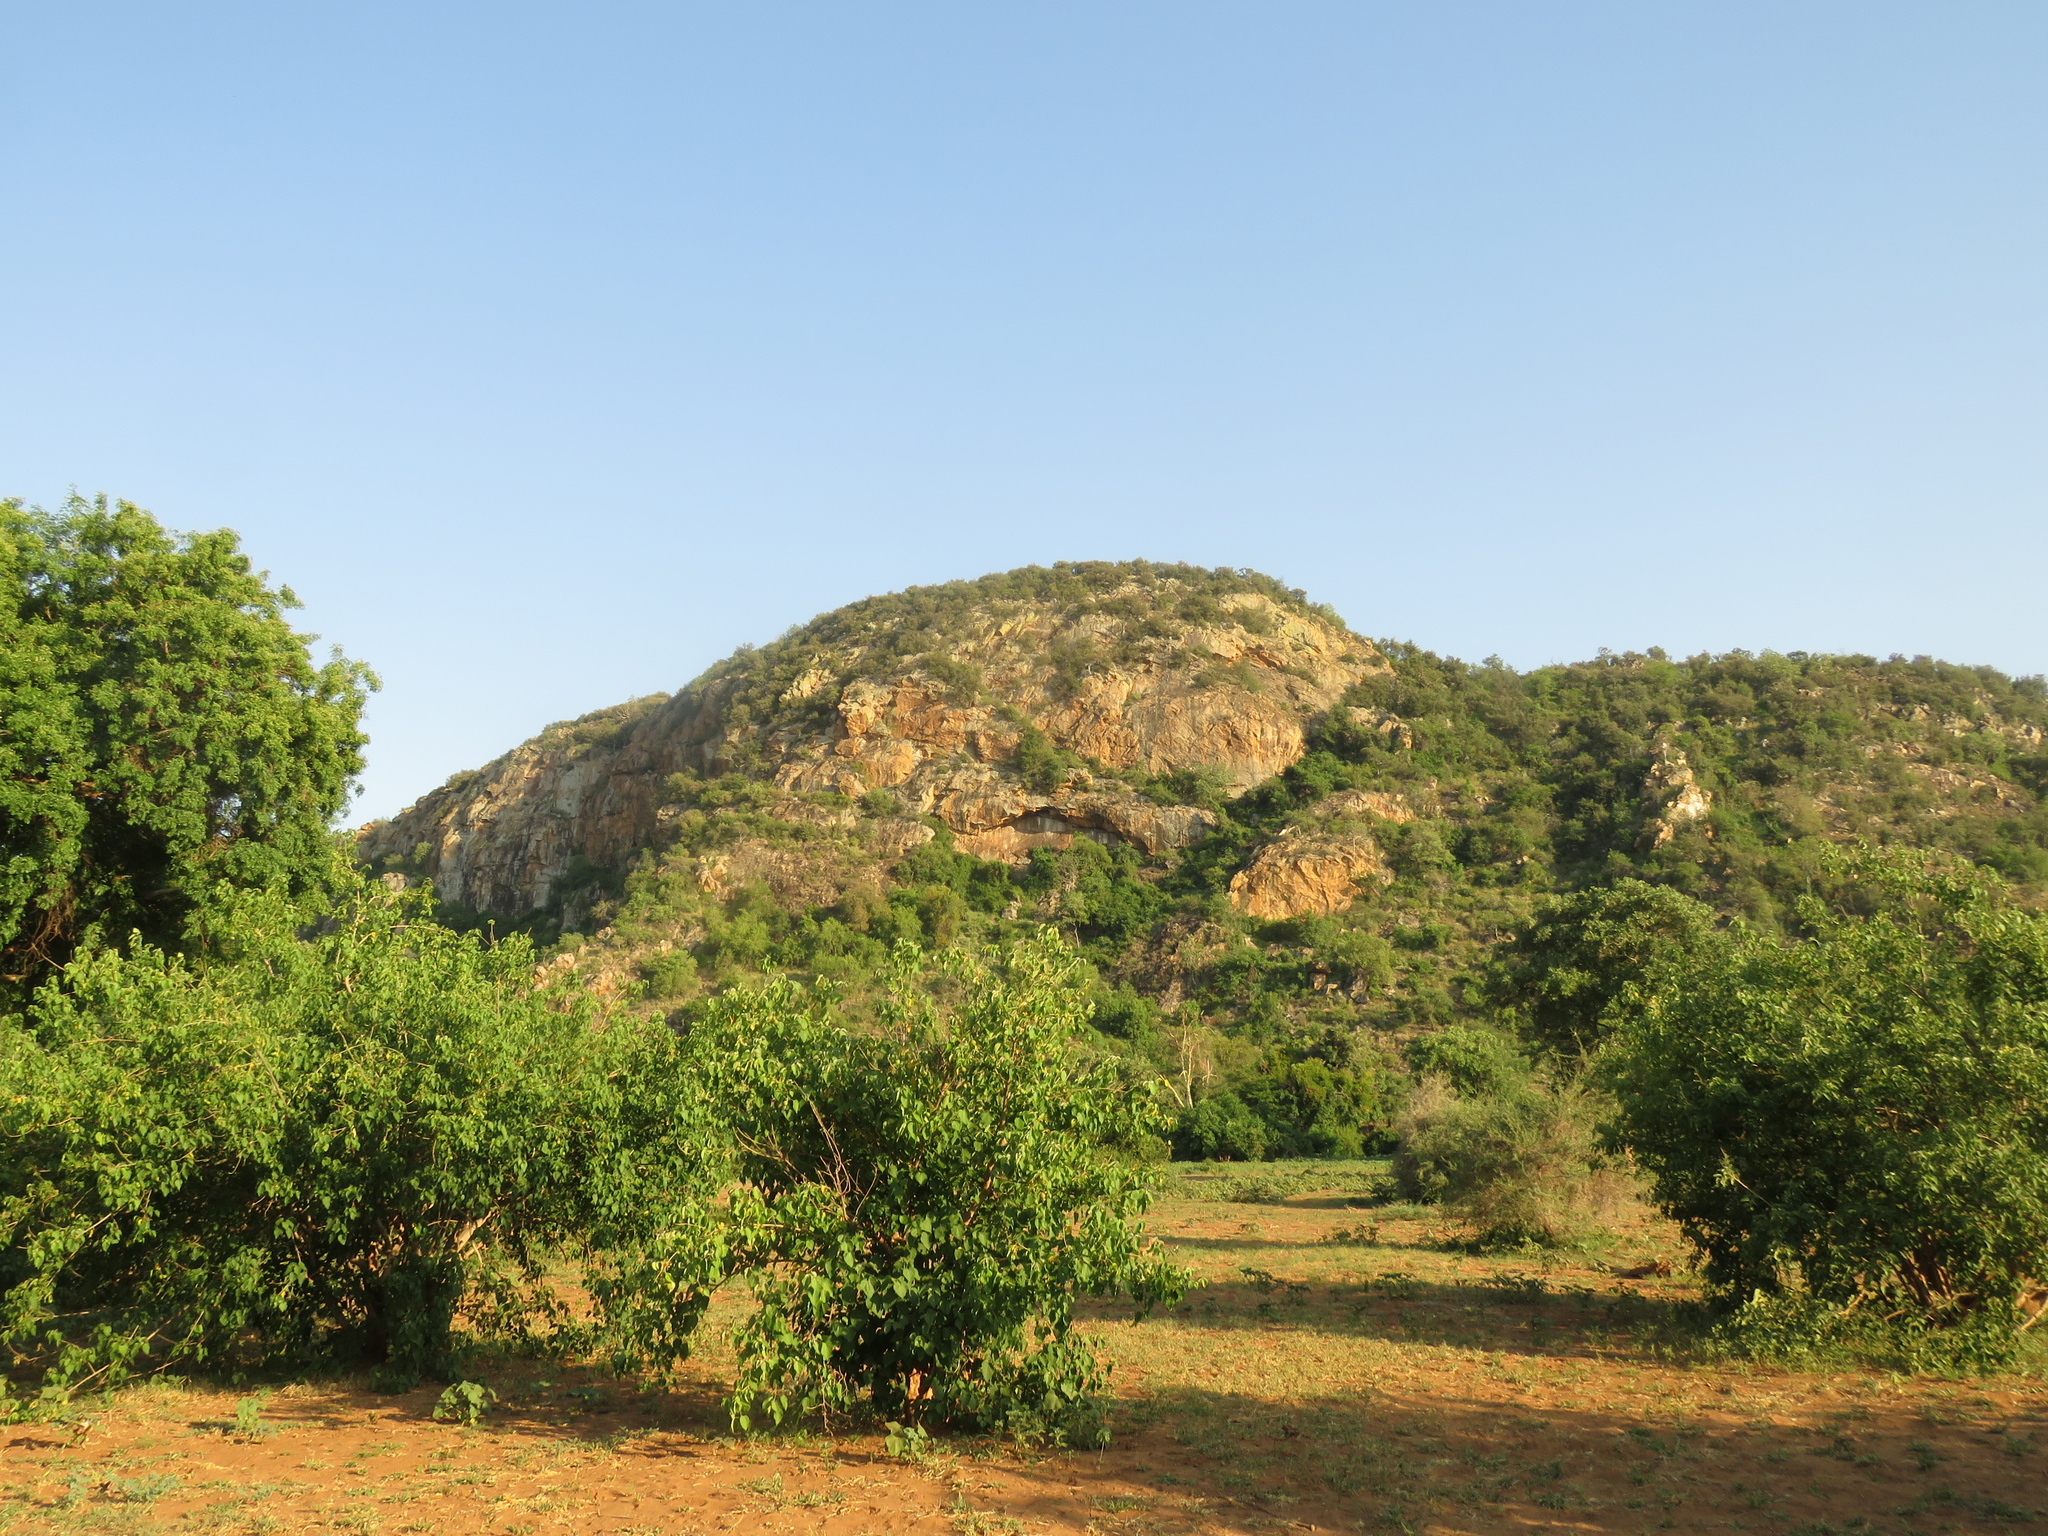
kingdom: Plantae
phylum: Tracheophyta
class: Magnoliopsida
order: Malpighiales
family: Euphorbiaceae
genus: Croton
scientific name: Croton megalobotrys
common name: Large fever berry
